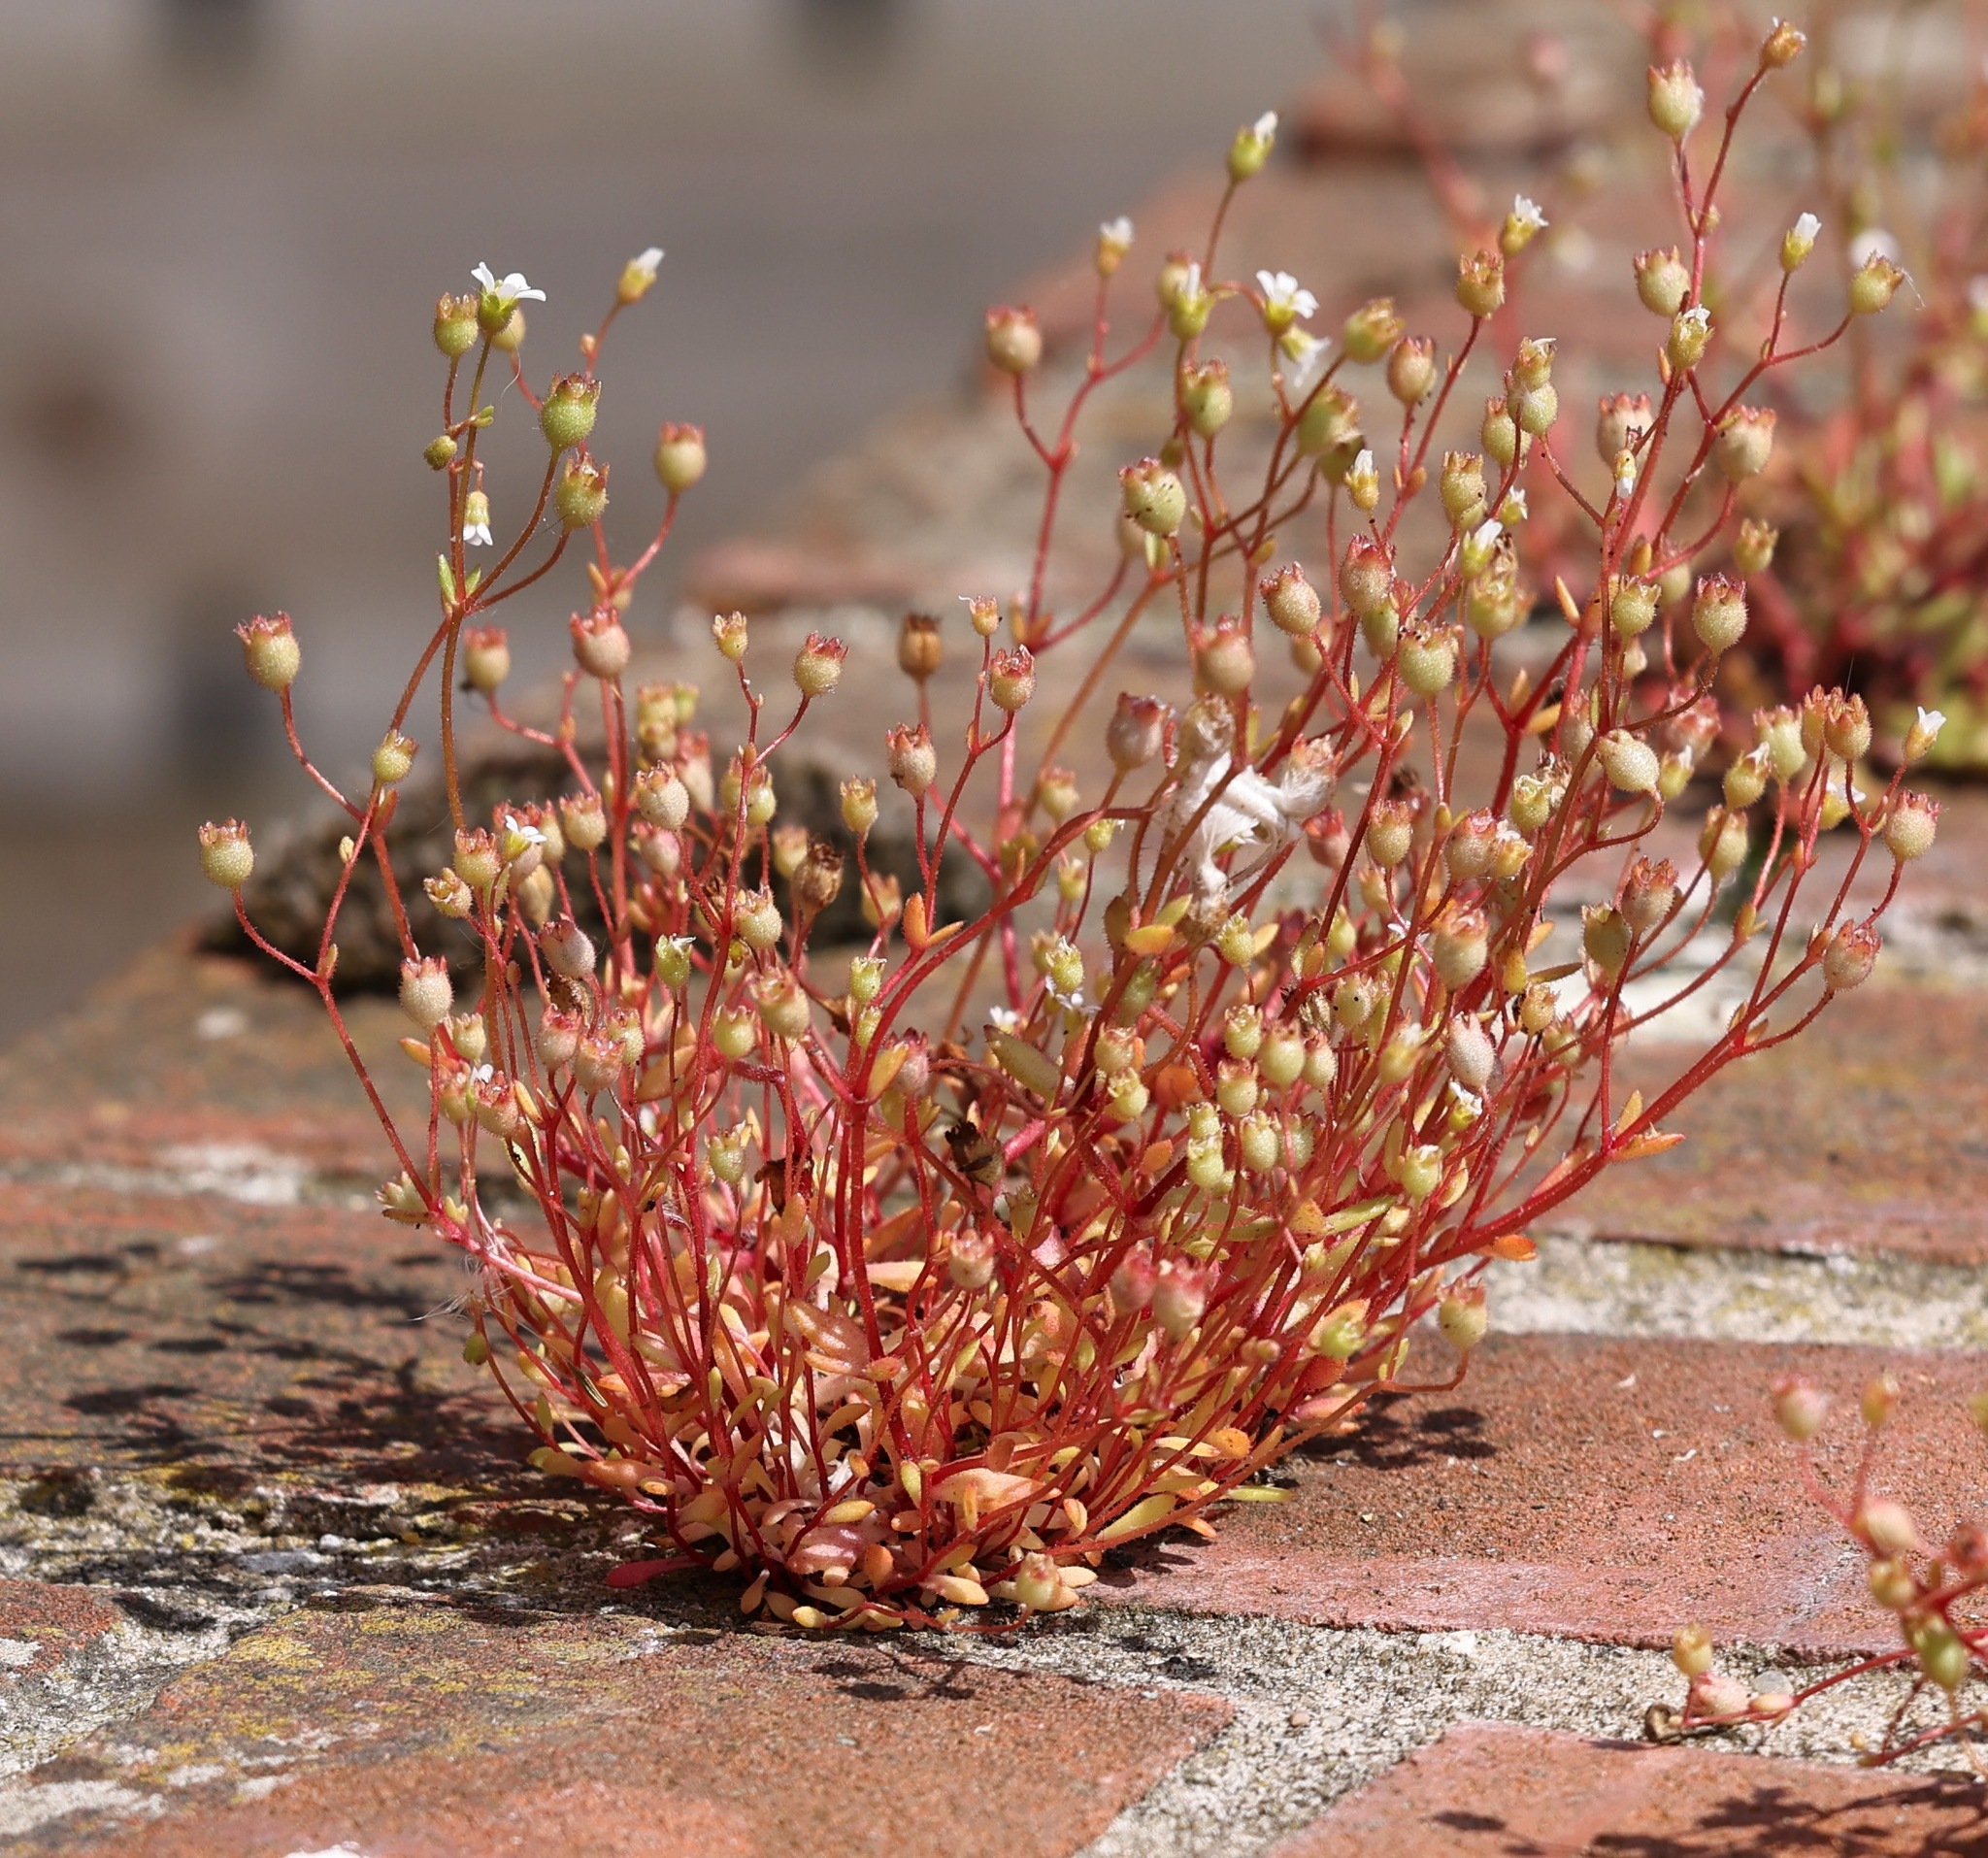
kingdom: Plantae
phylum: Tracheophyta
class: Magnoliopsida
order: Saxifragales
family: Saxifragaceae
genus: Saxifraga
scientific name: Saxifraga tridactylites
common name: Rue-leaved saxifrage
